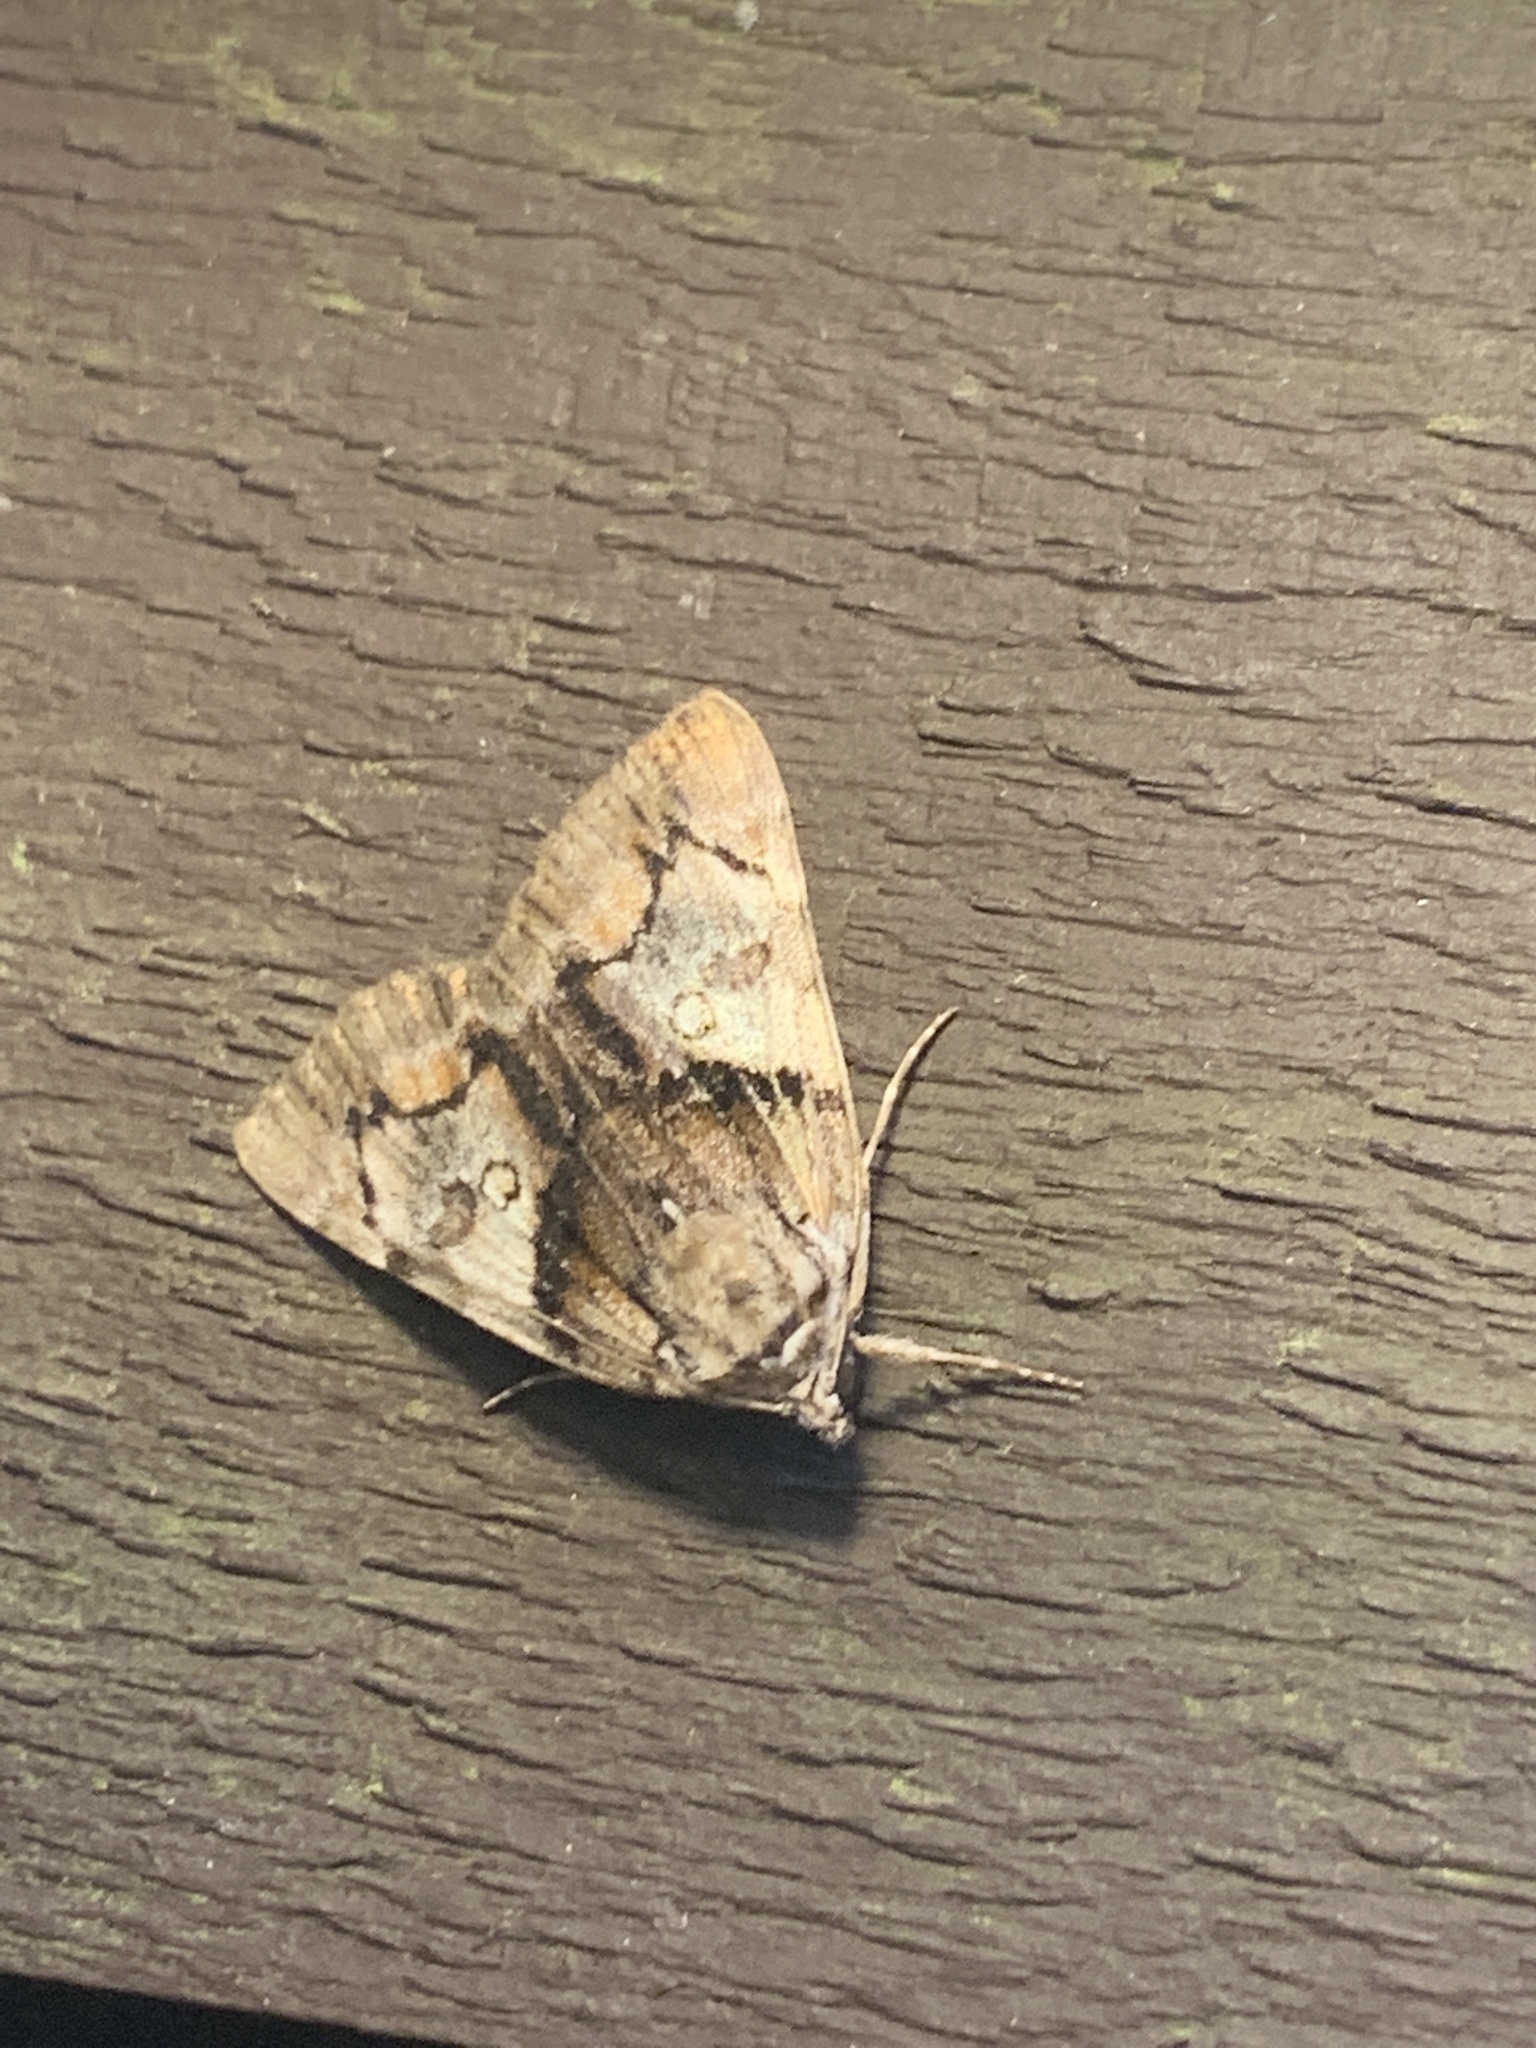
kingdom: Animalia
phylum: Arthropoda
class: Insecta
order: Lepidoptera
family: Erebidae
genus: Catocala
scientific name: Catocala blandula
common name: Charming underwing
